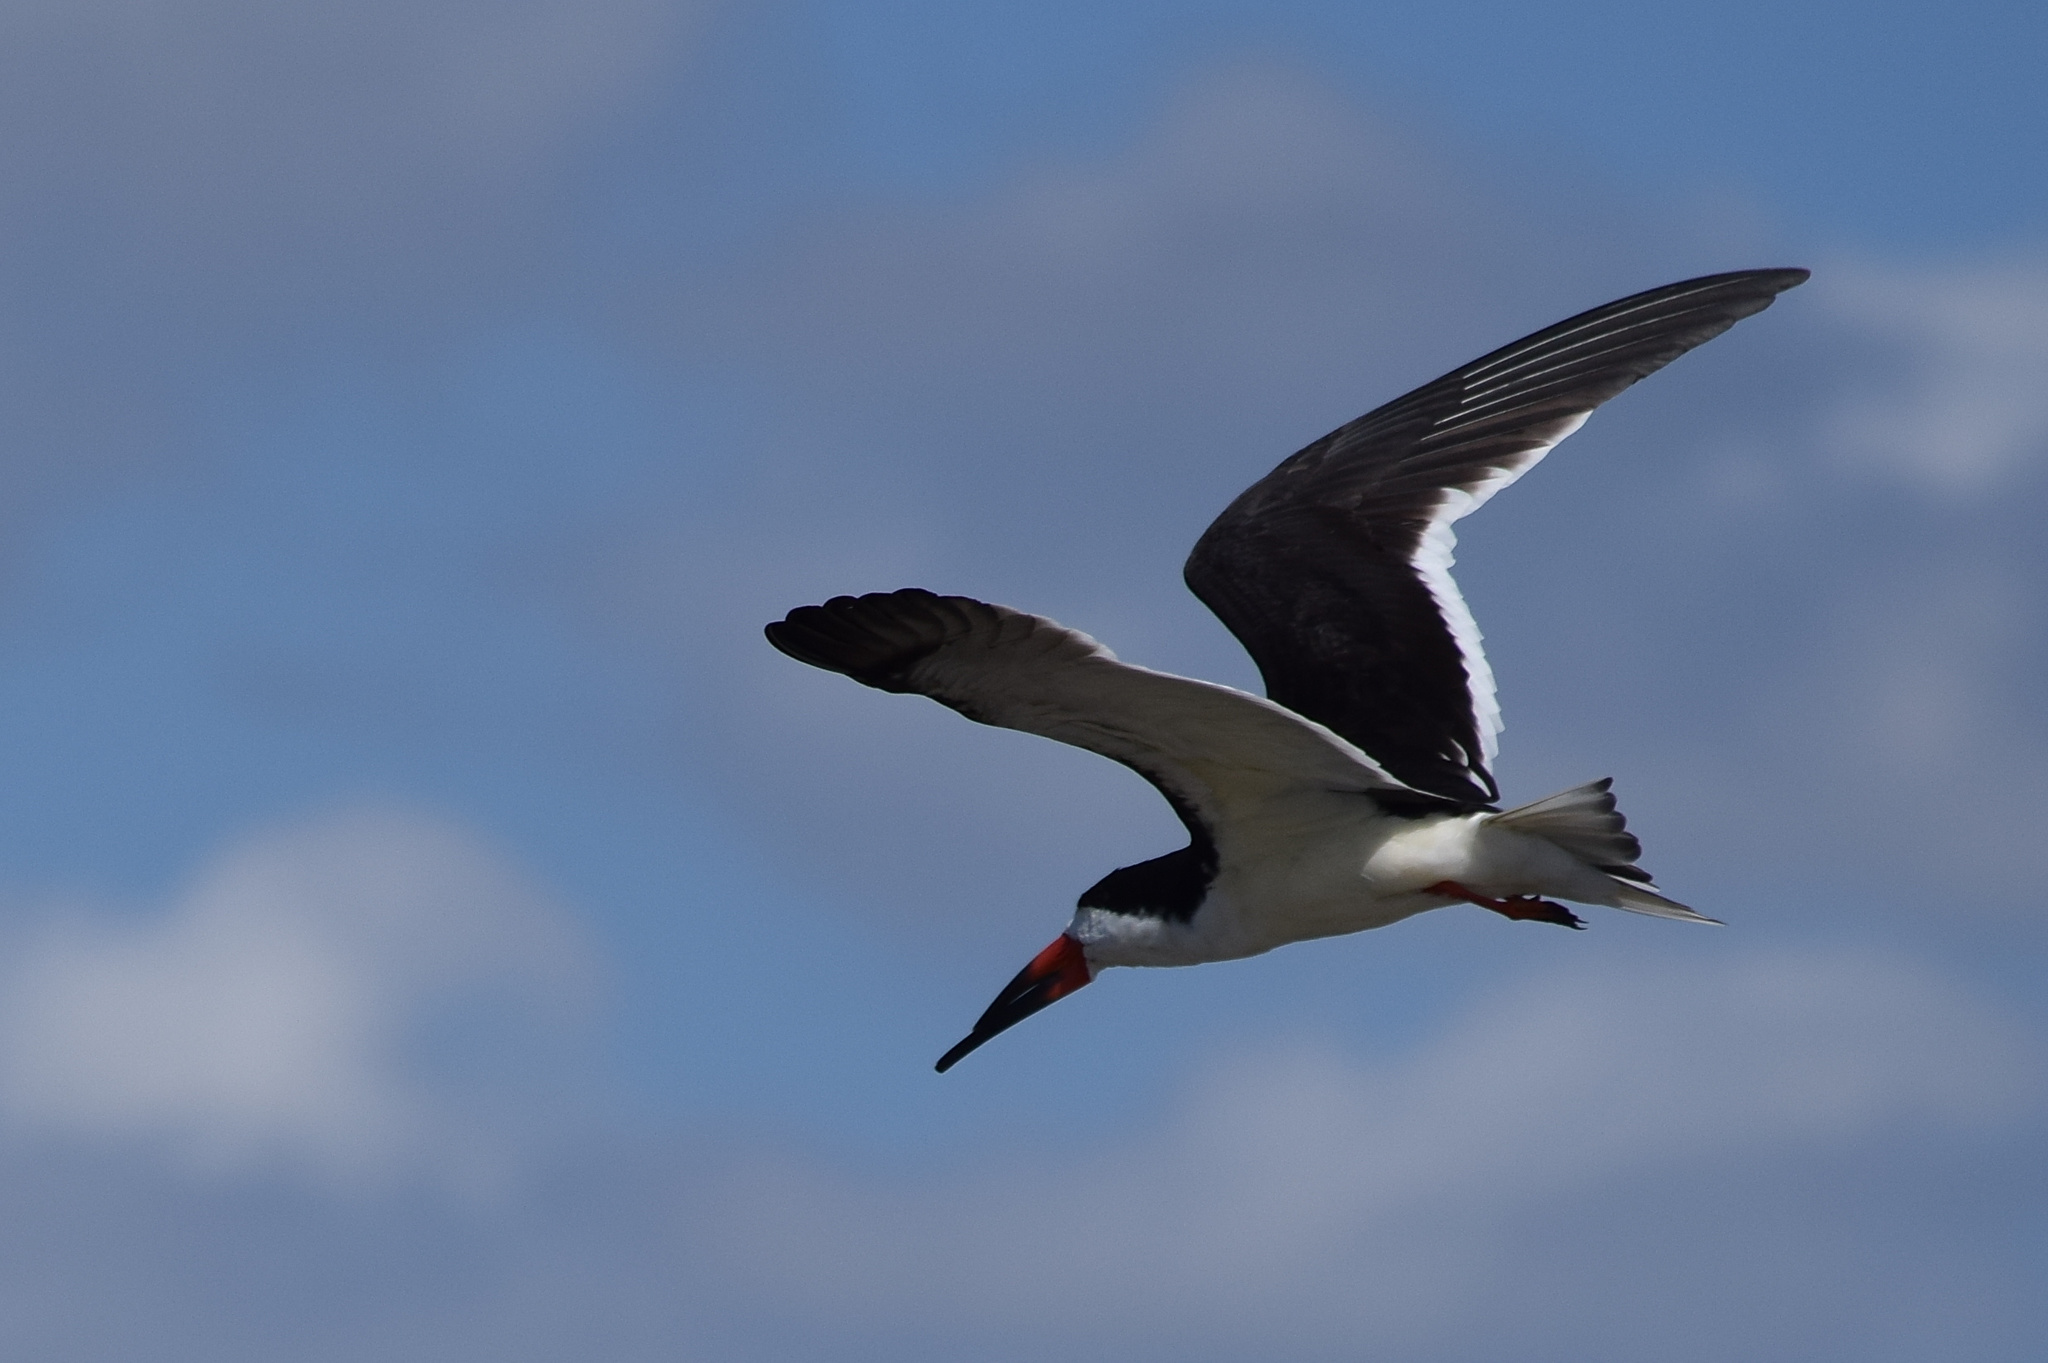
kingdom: Animalia
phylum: Chordata
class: Aves
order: Charadriiformes
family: Laridae
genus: Rynchops
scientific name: Rynchops niger
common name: Black skimmer
